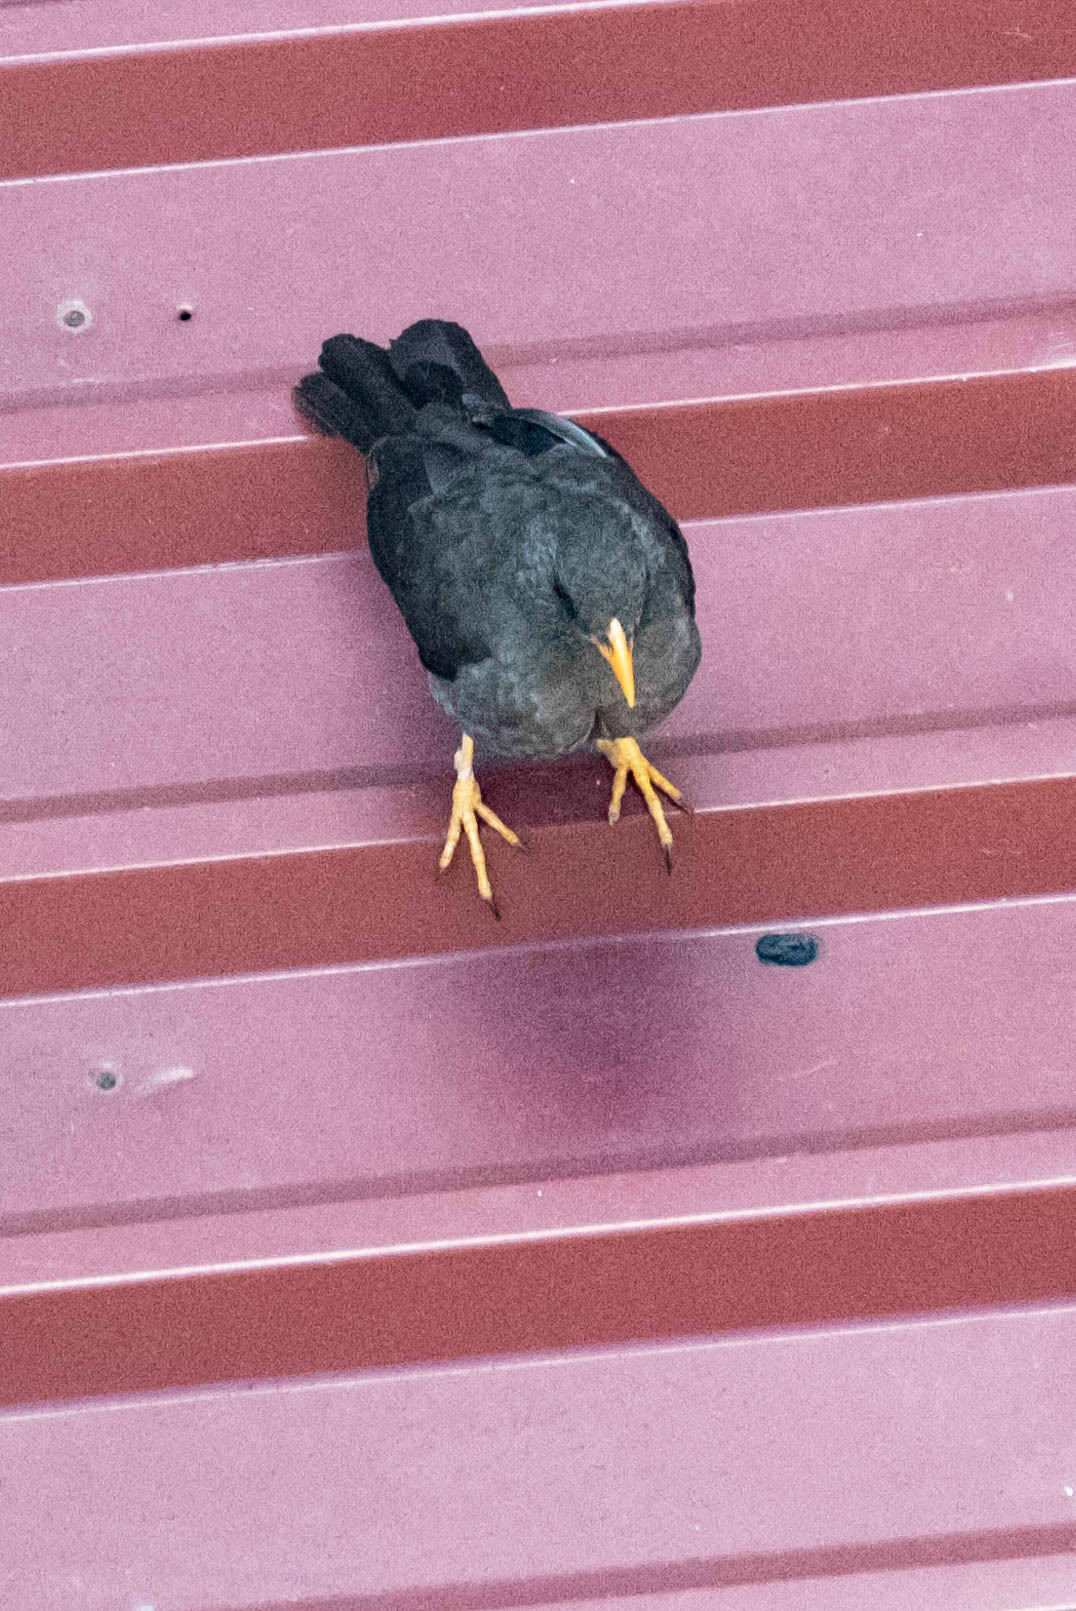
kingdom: Animalia
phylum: Chordata
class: Aves
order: Passeriformes
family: Turdidae
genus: Turdus
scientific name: Turdus fuscater
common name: Great thrush
